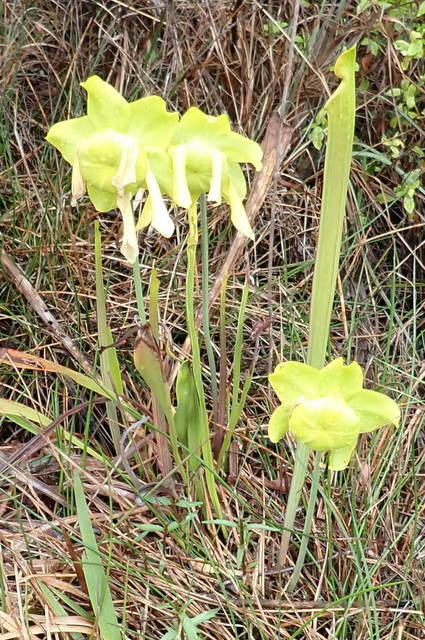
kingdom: Plantae
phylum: Tracheophyta
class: Magnoliopsida
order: Ericales
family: Sarraceniaceae
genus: Sarracenia
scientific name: Sarracenia flava
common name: Trumpets
